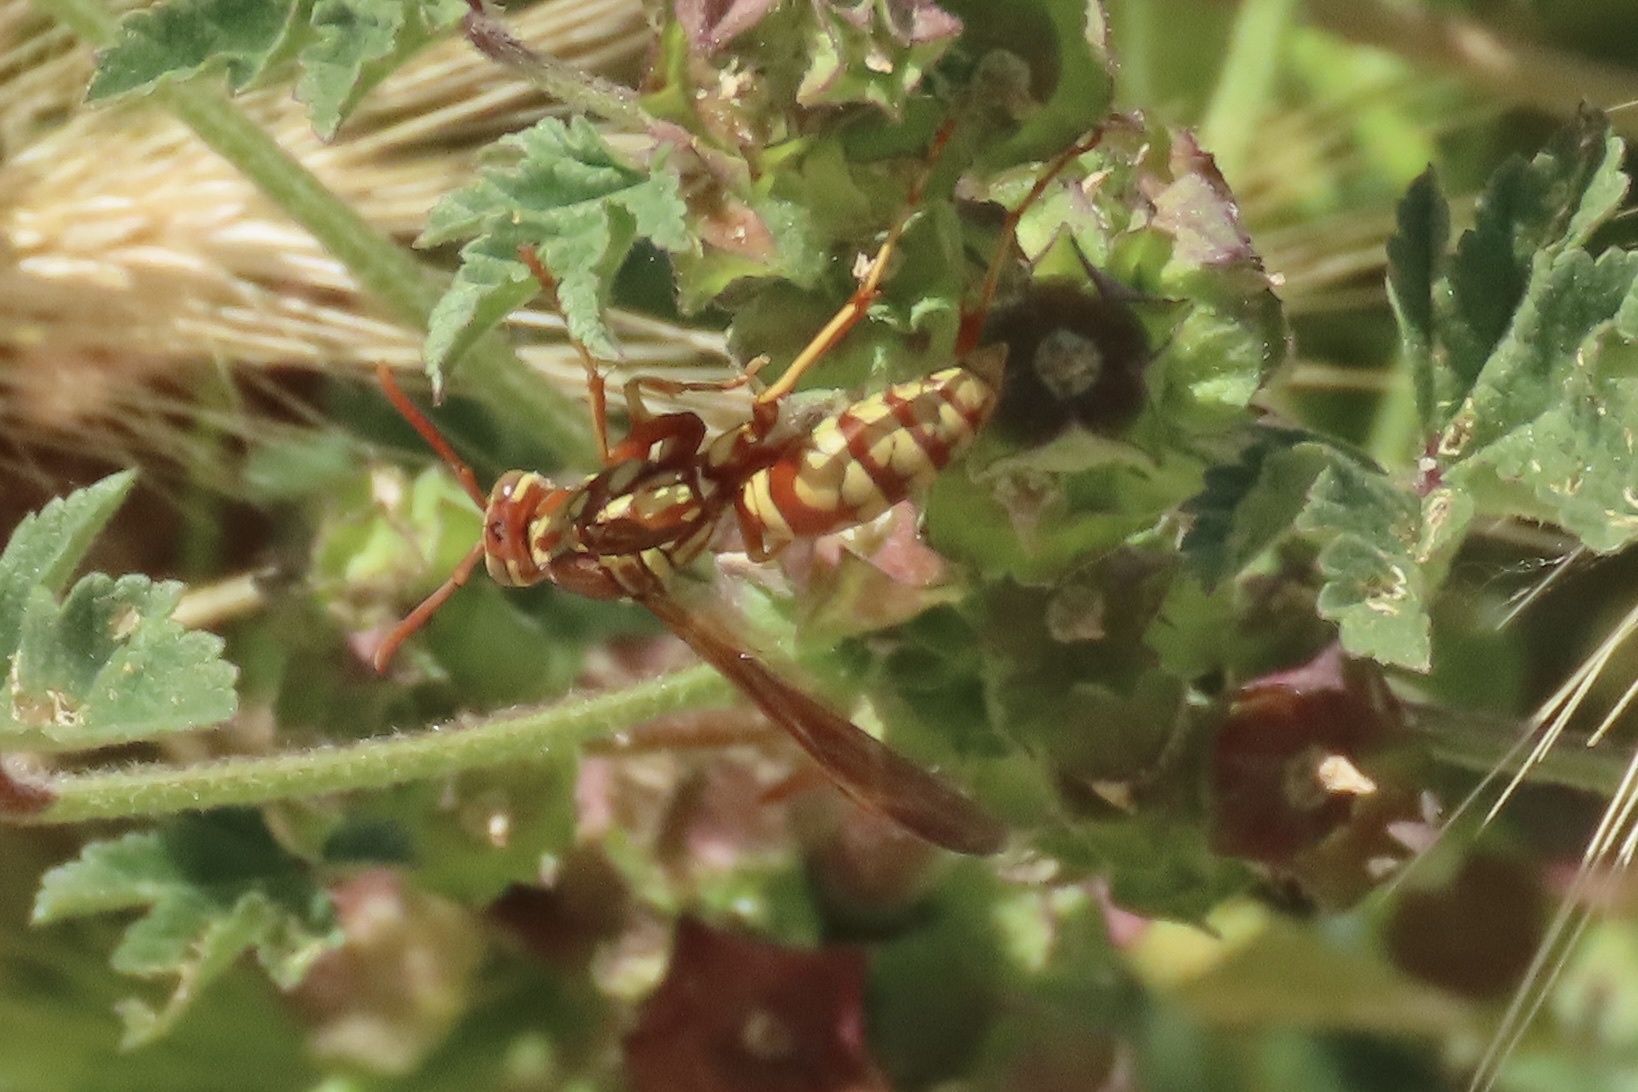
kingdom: Animalia
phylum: Arthropoda
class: Insecta
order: Hymenoptera
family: Eumenidae
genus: Polistes
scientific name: Polistes aurifer
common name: Paper wasp
